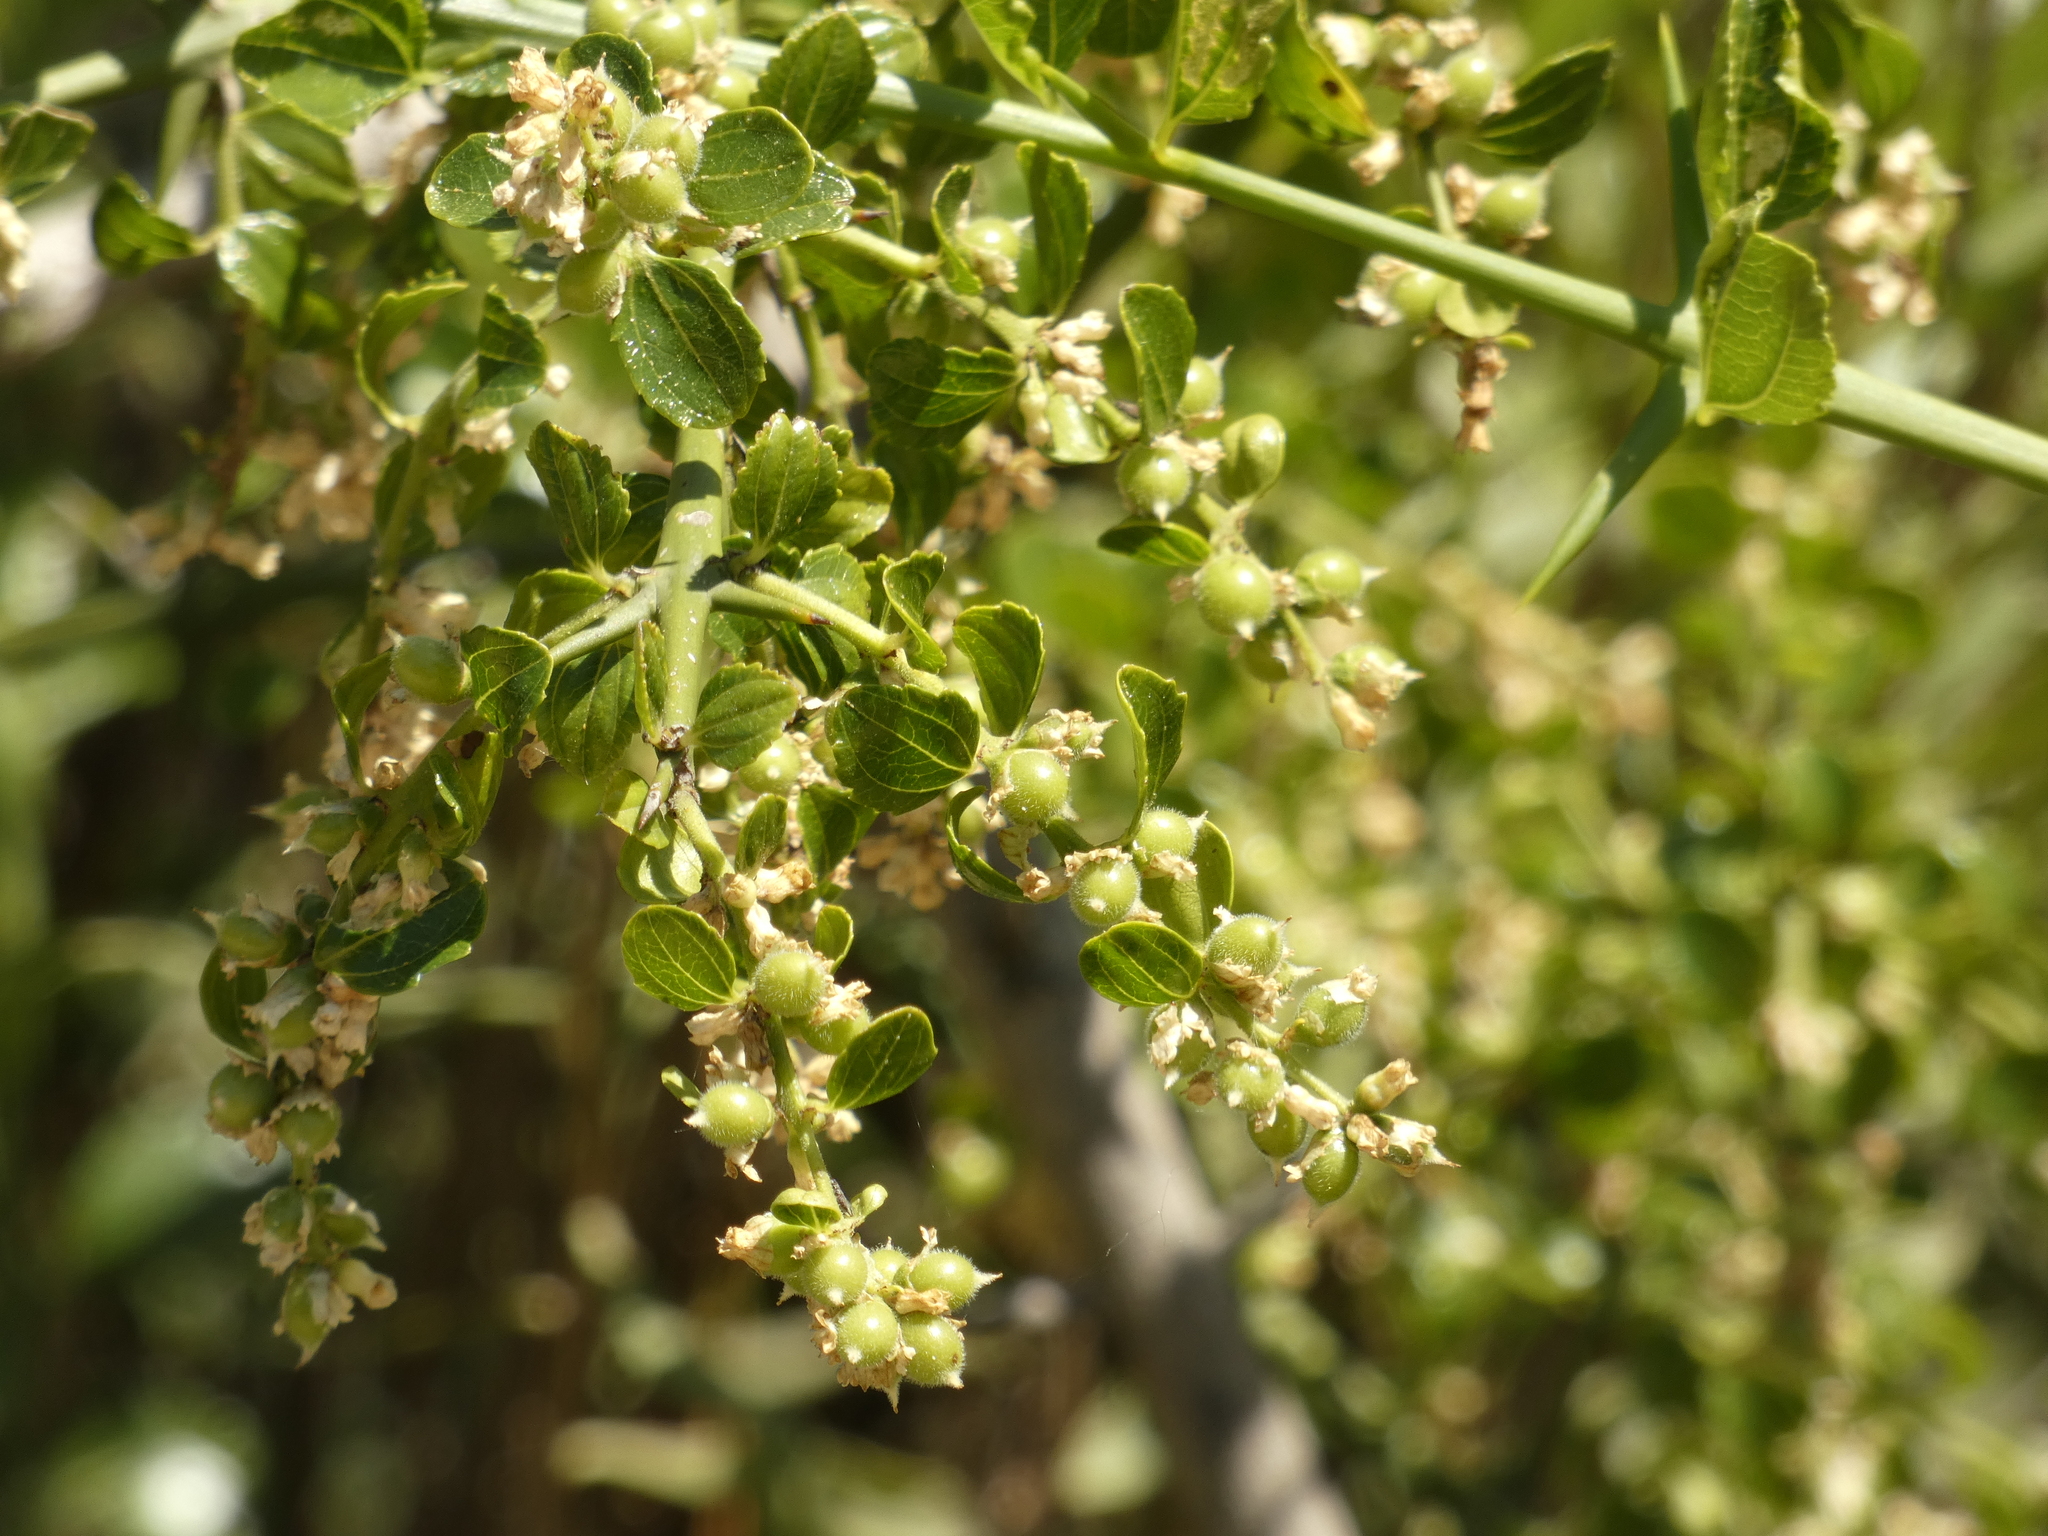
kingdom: Plantae
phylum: Tracheophyta
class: Magnoliopsida
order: Rosales
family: Rhamnaceae
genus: Retanilla
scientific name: Retanilla trinervia
